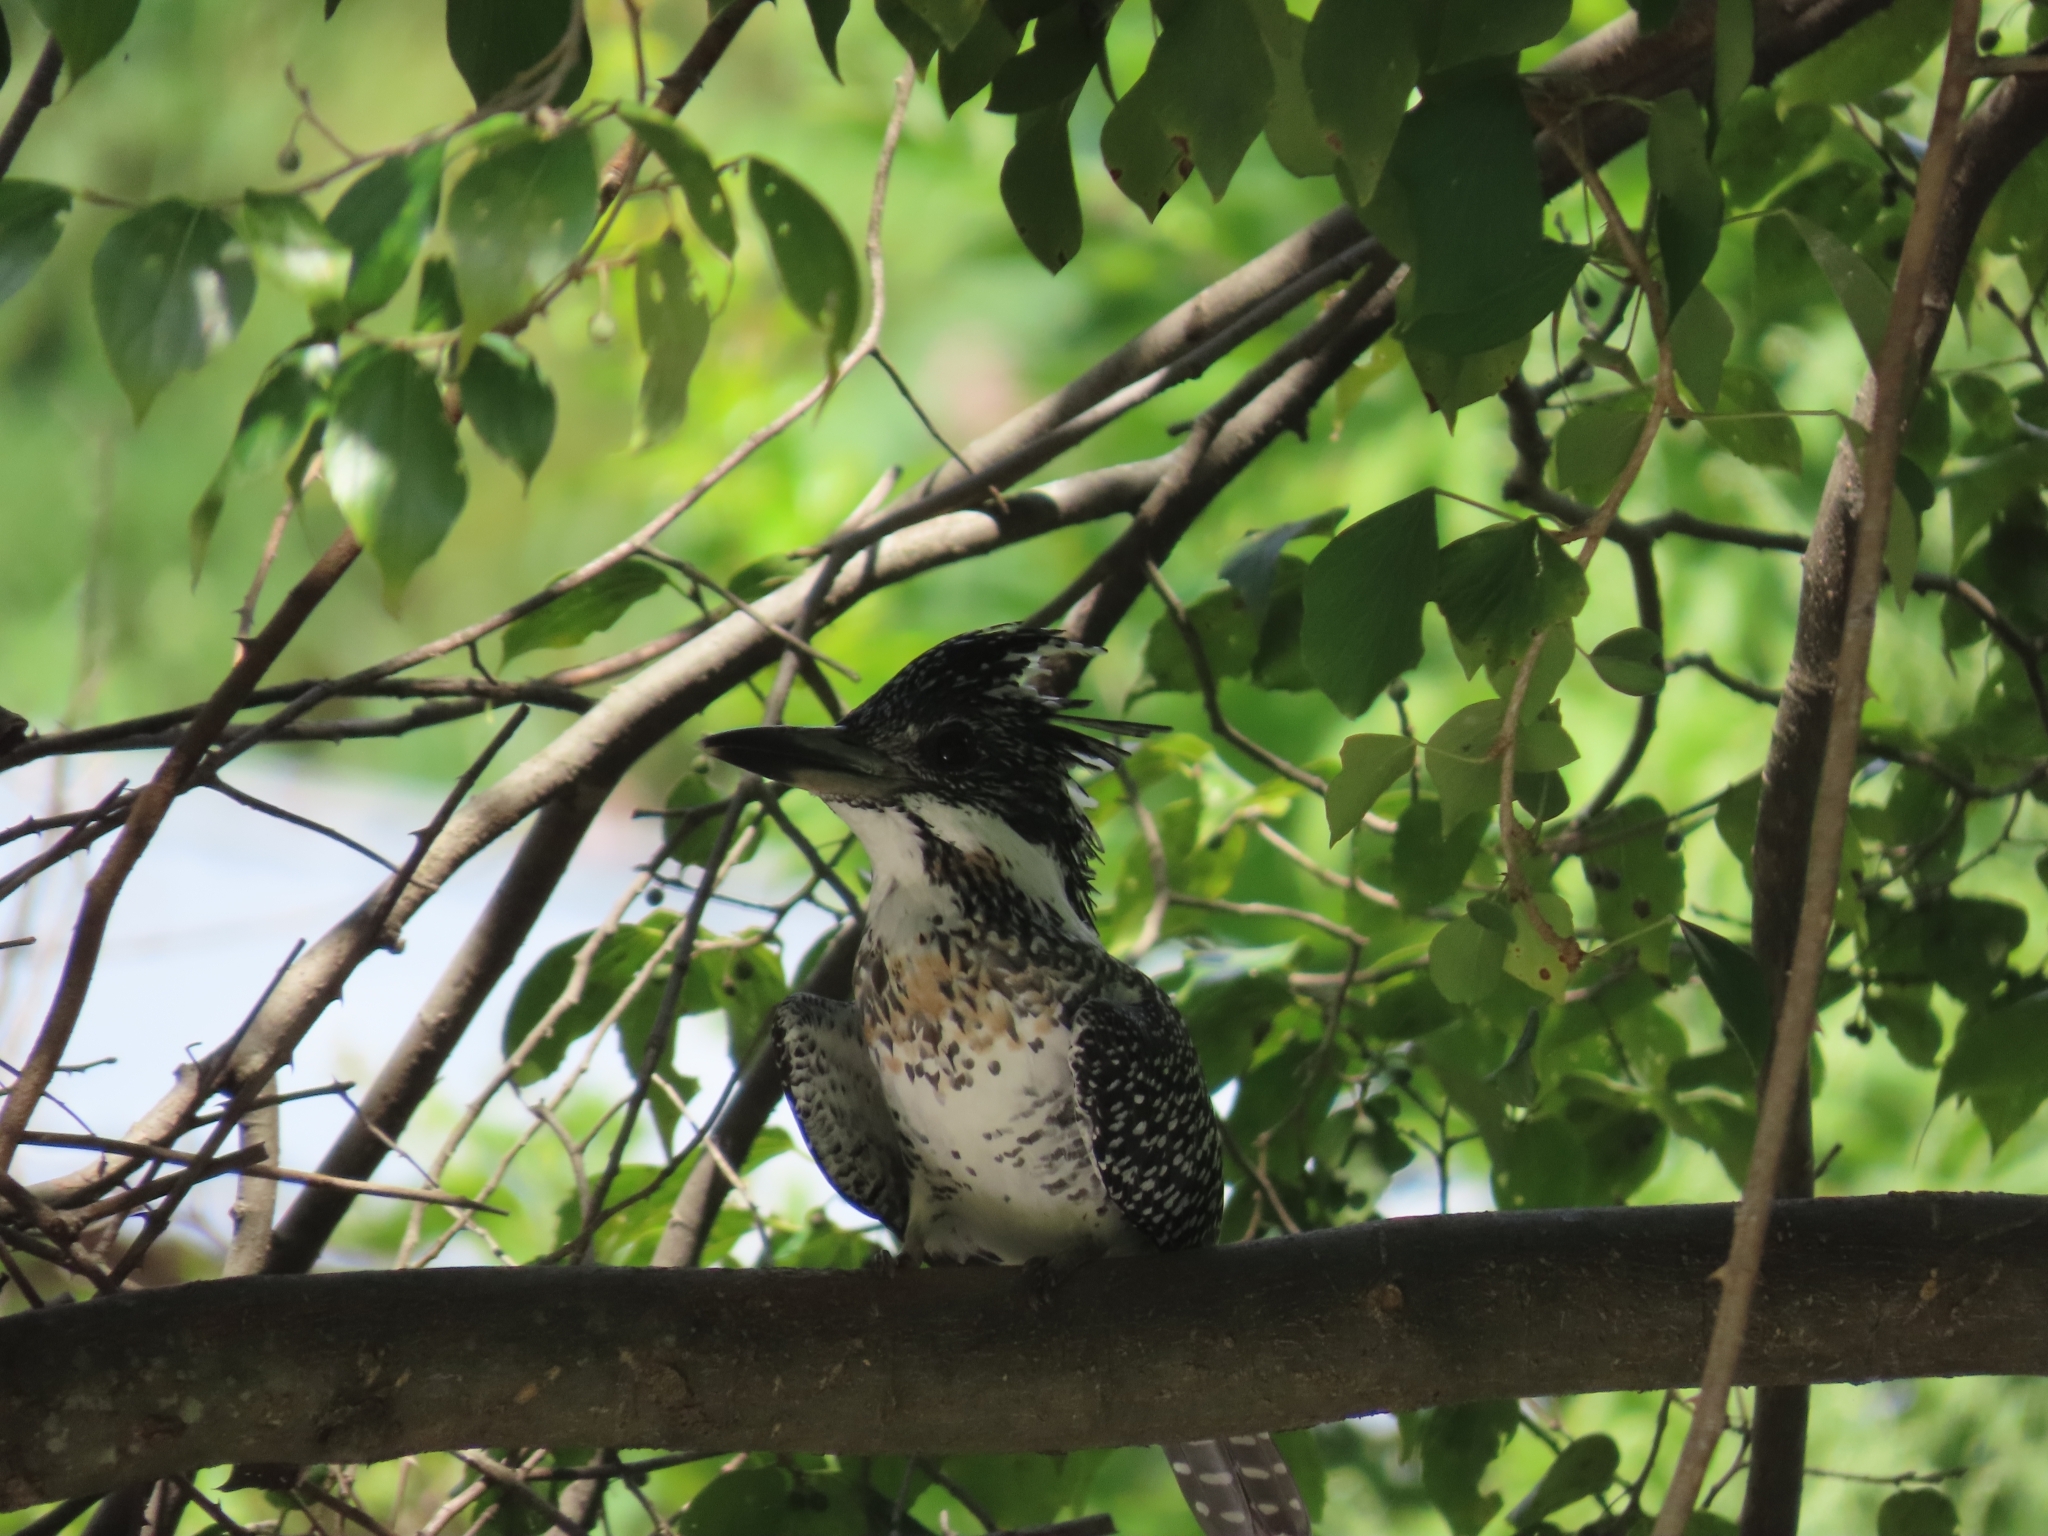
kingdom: Animalia
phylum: Chordata
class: Aves
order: Coraciiformes
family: Alcedinidae
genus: Megaceryle
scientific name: Megaceryle lugubris
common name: Crested kingfisher
